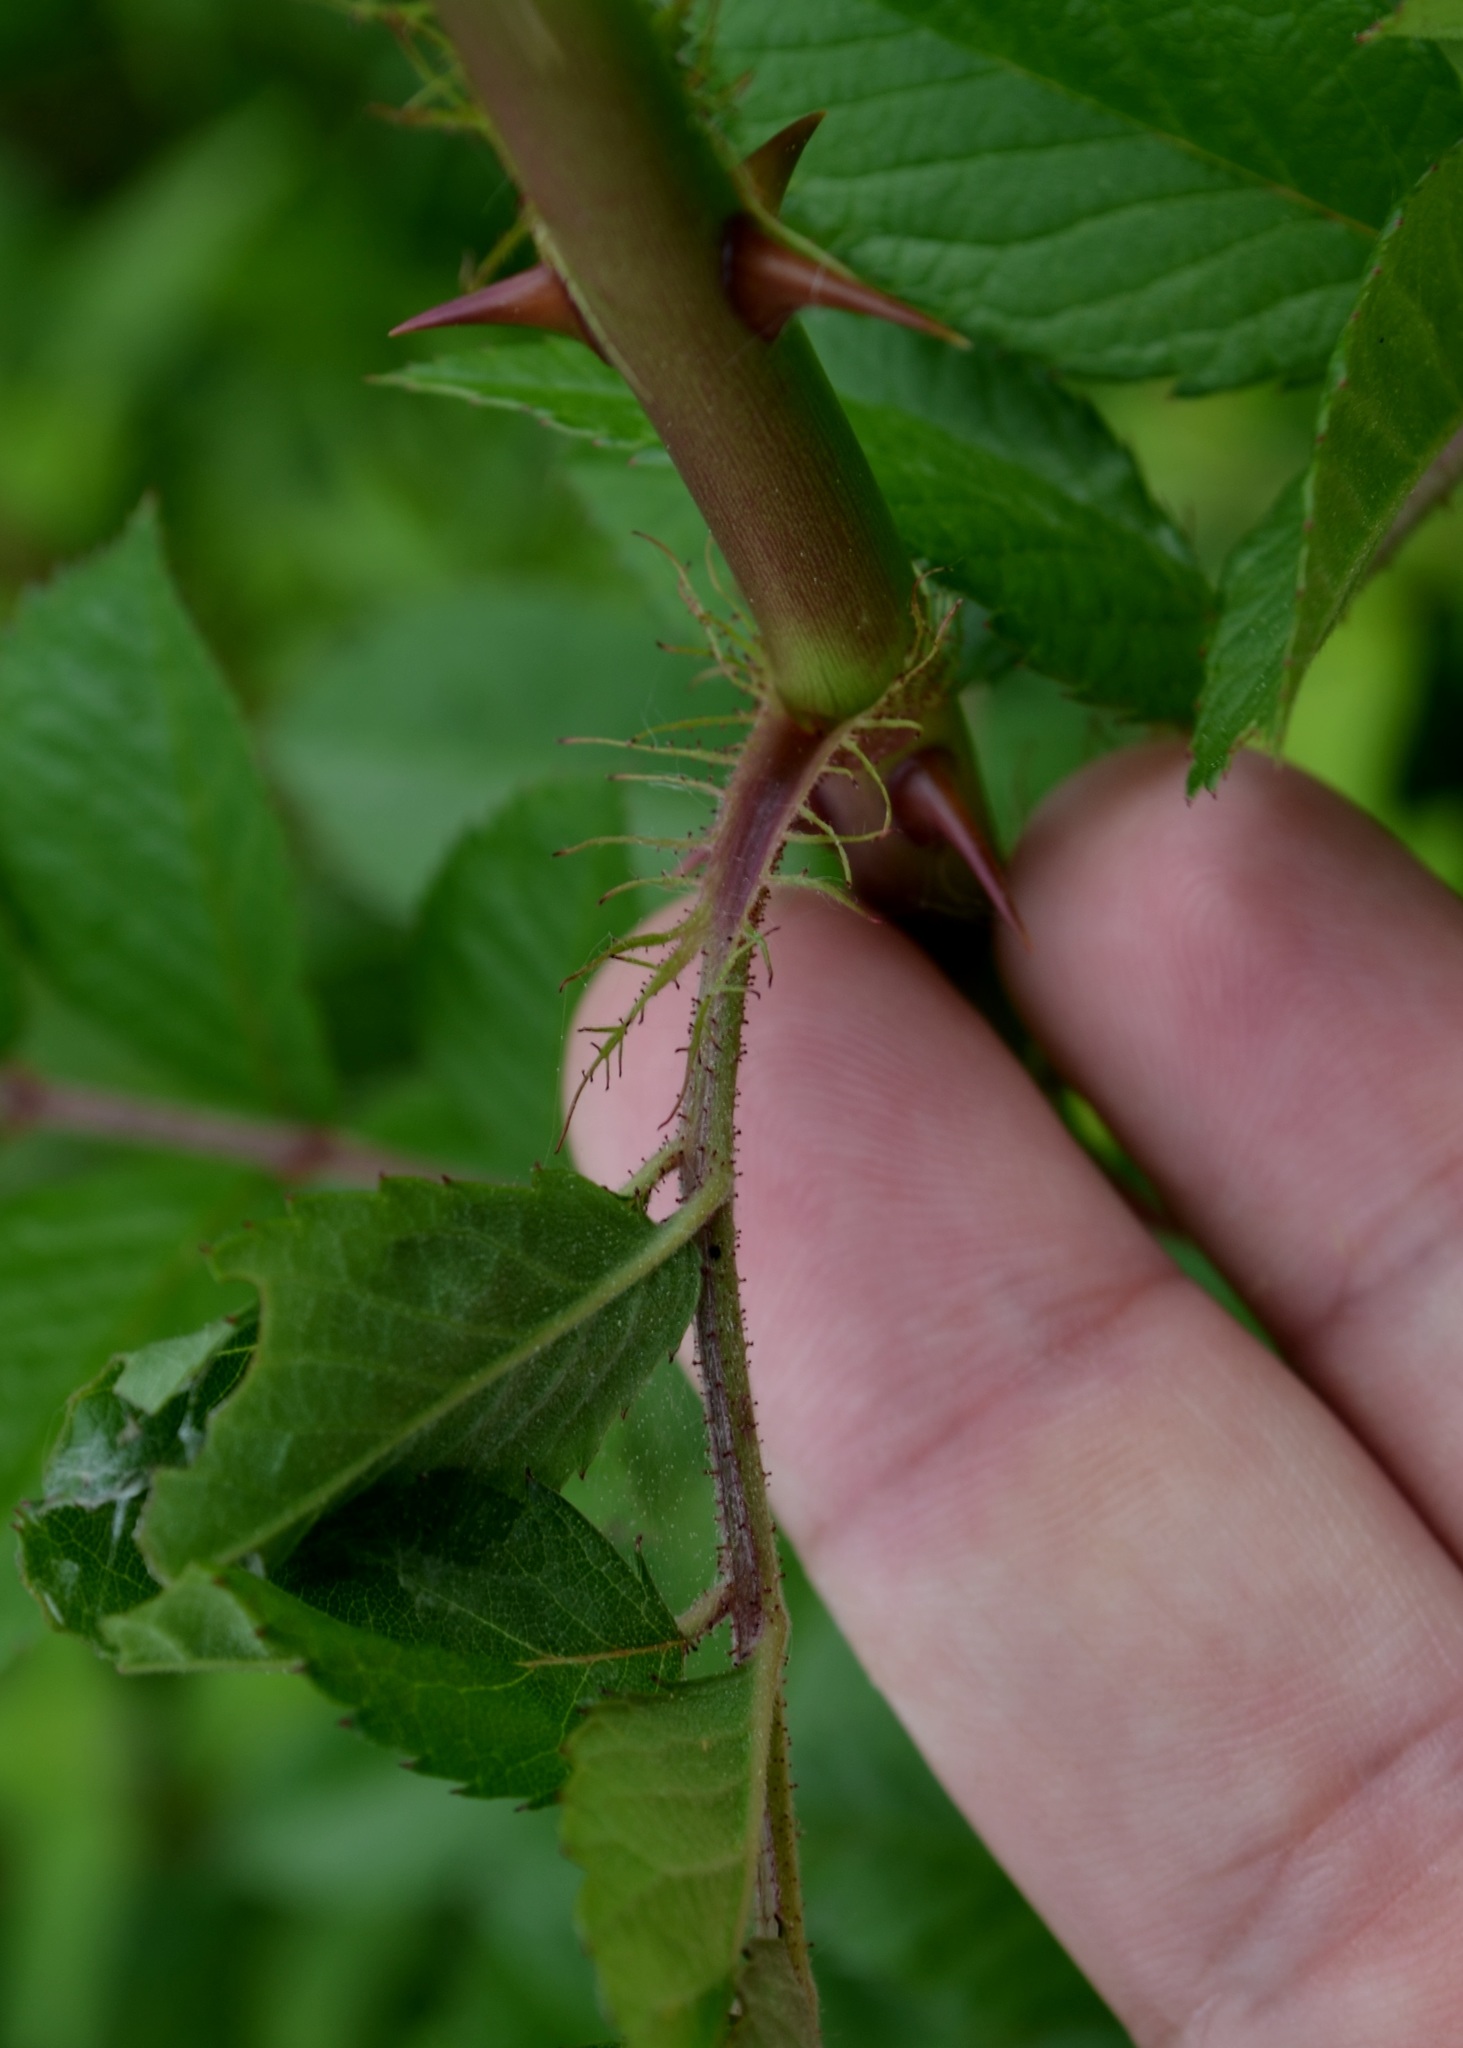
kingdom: Plantae
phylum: Tracheophyta
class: Magnoliopsida
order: Rosales
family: Rosaceae
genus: Rosa
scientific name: Rosa multiflora
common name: Multiflora rose
